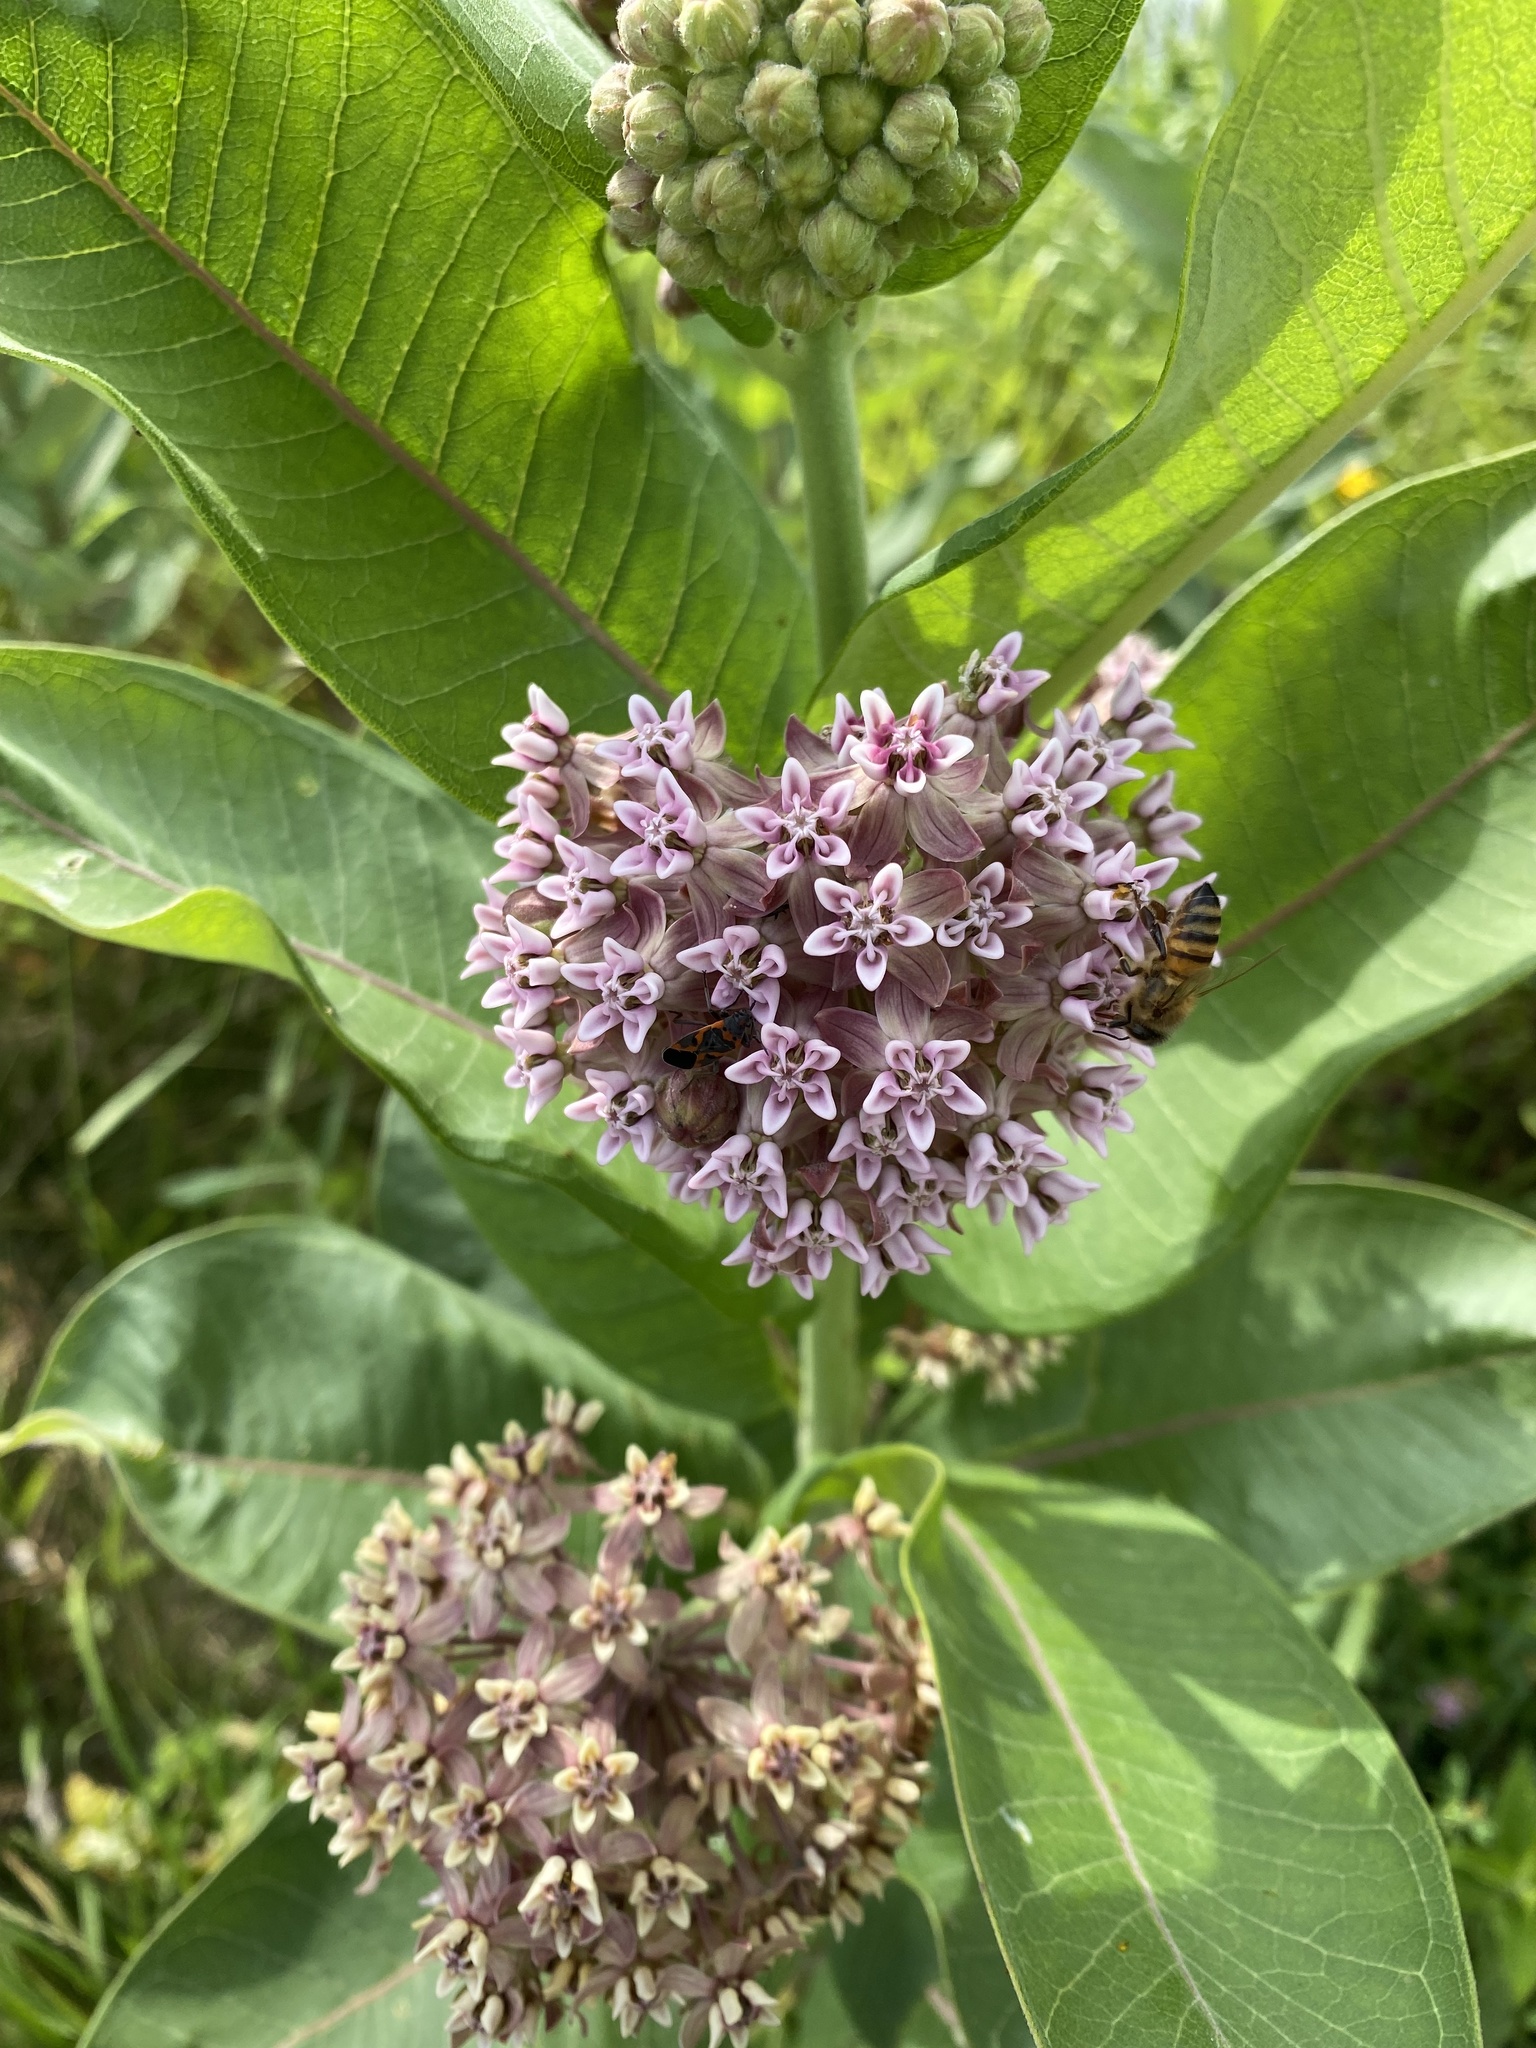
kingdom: Plantae
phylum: Tracheophyta
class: Magnoliopsida
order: Gentianales
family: Apocynaceae
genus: Asclepias
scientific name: Asclepias syriaca
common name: Common milkweed
